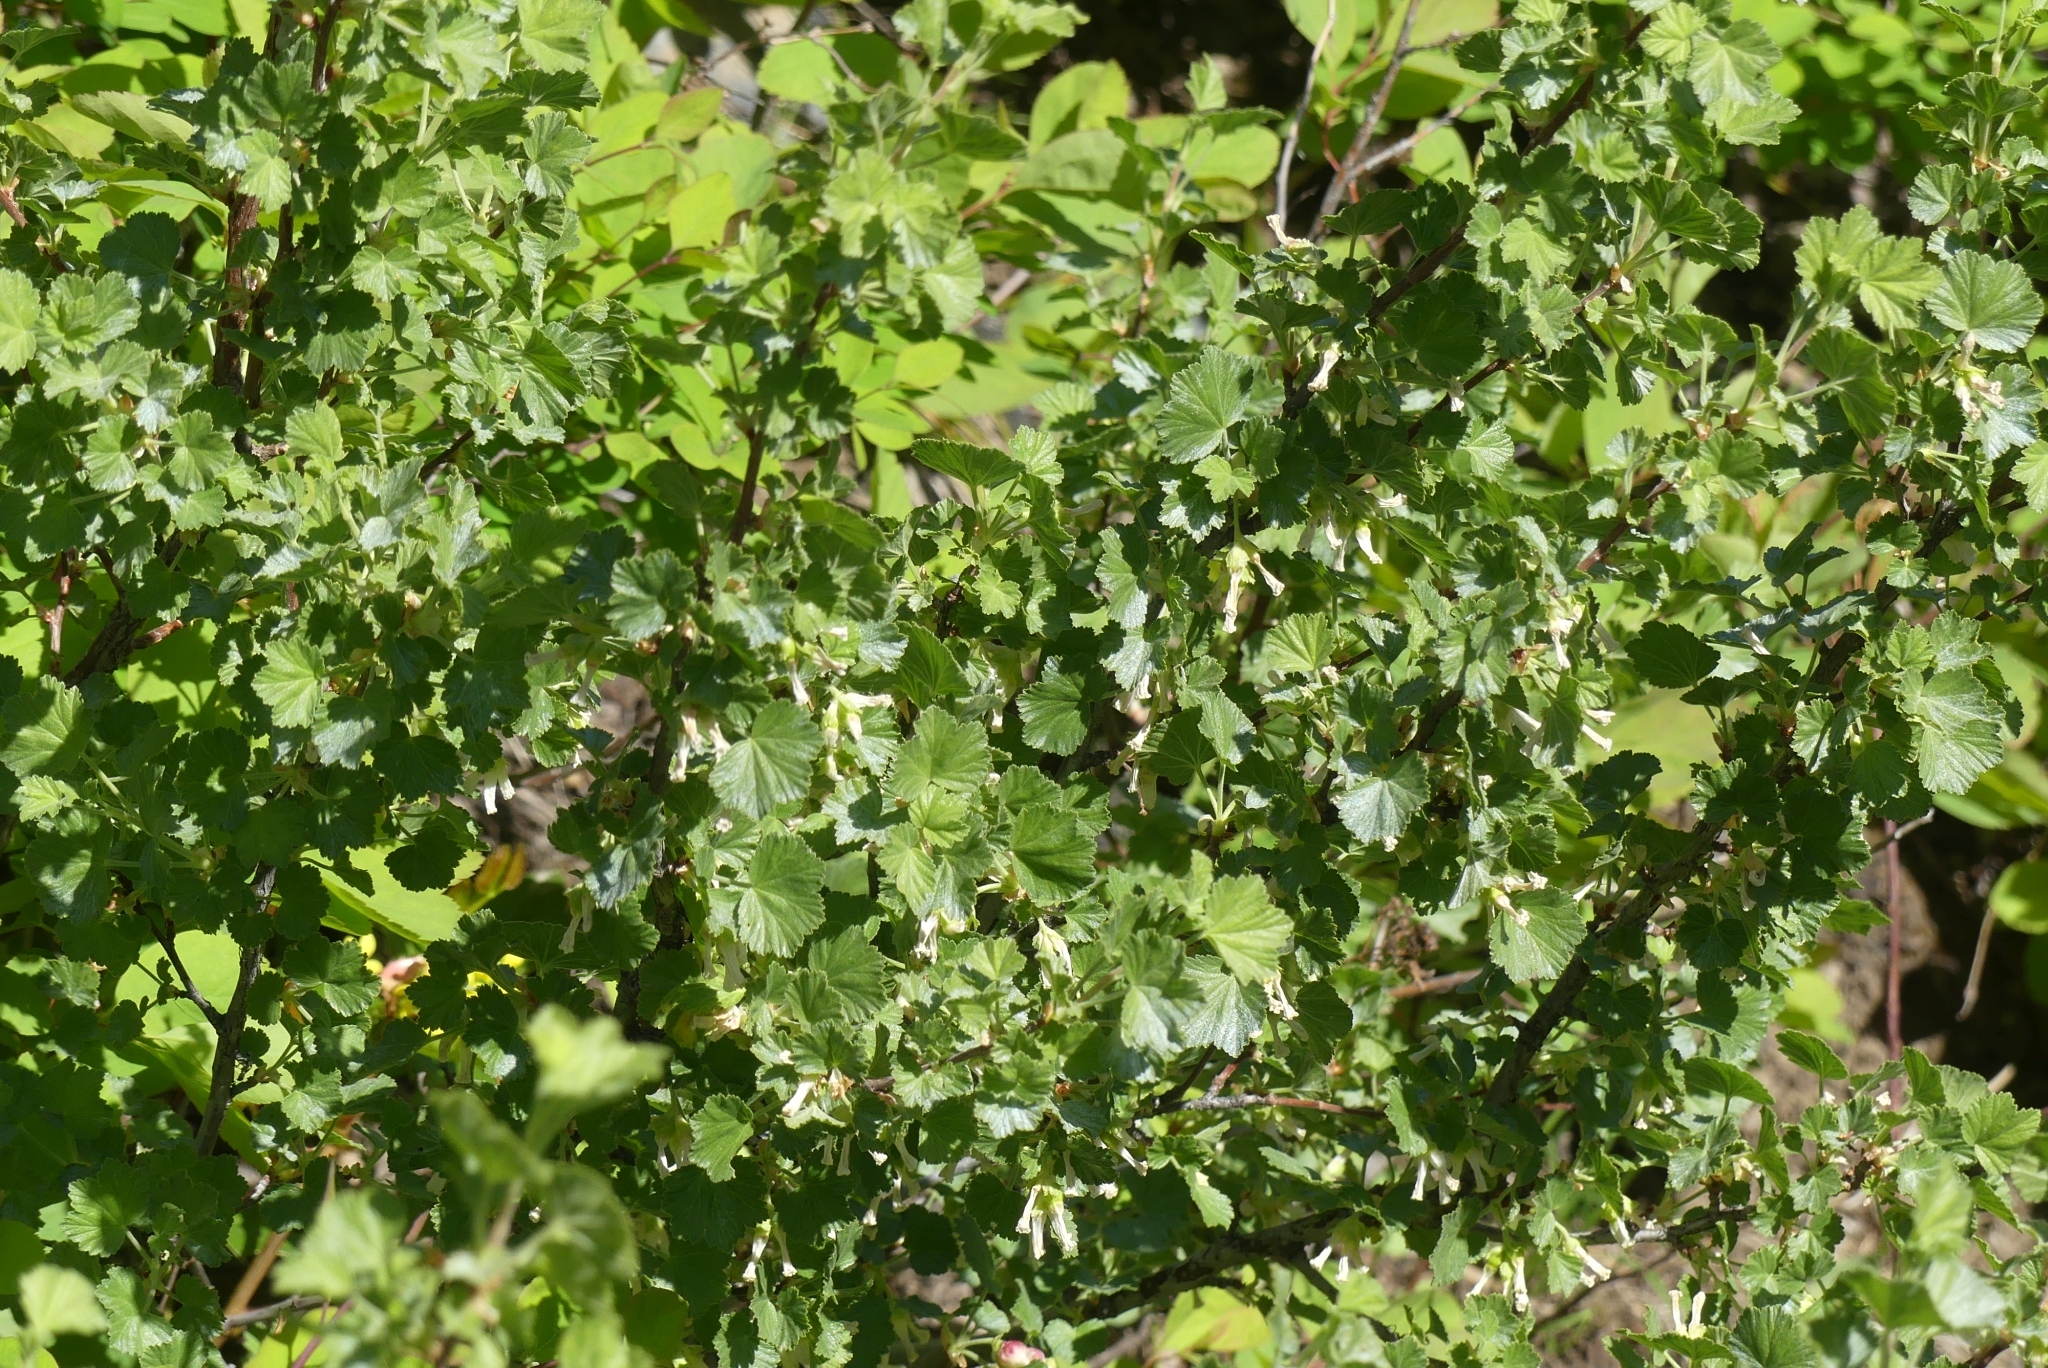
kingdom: Plantae
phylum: Tracheophyta
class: Magnoliopsida
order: Saxifragales
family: Grossulariaceae
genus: Ribes
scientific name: Ribes cereum
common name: Wax currant
